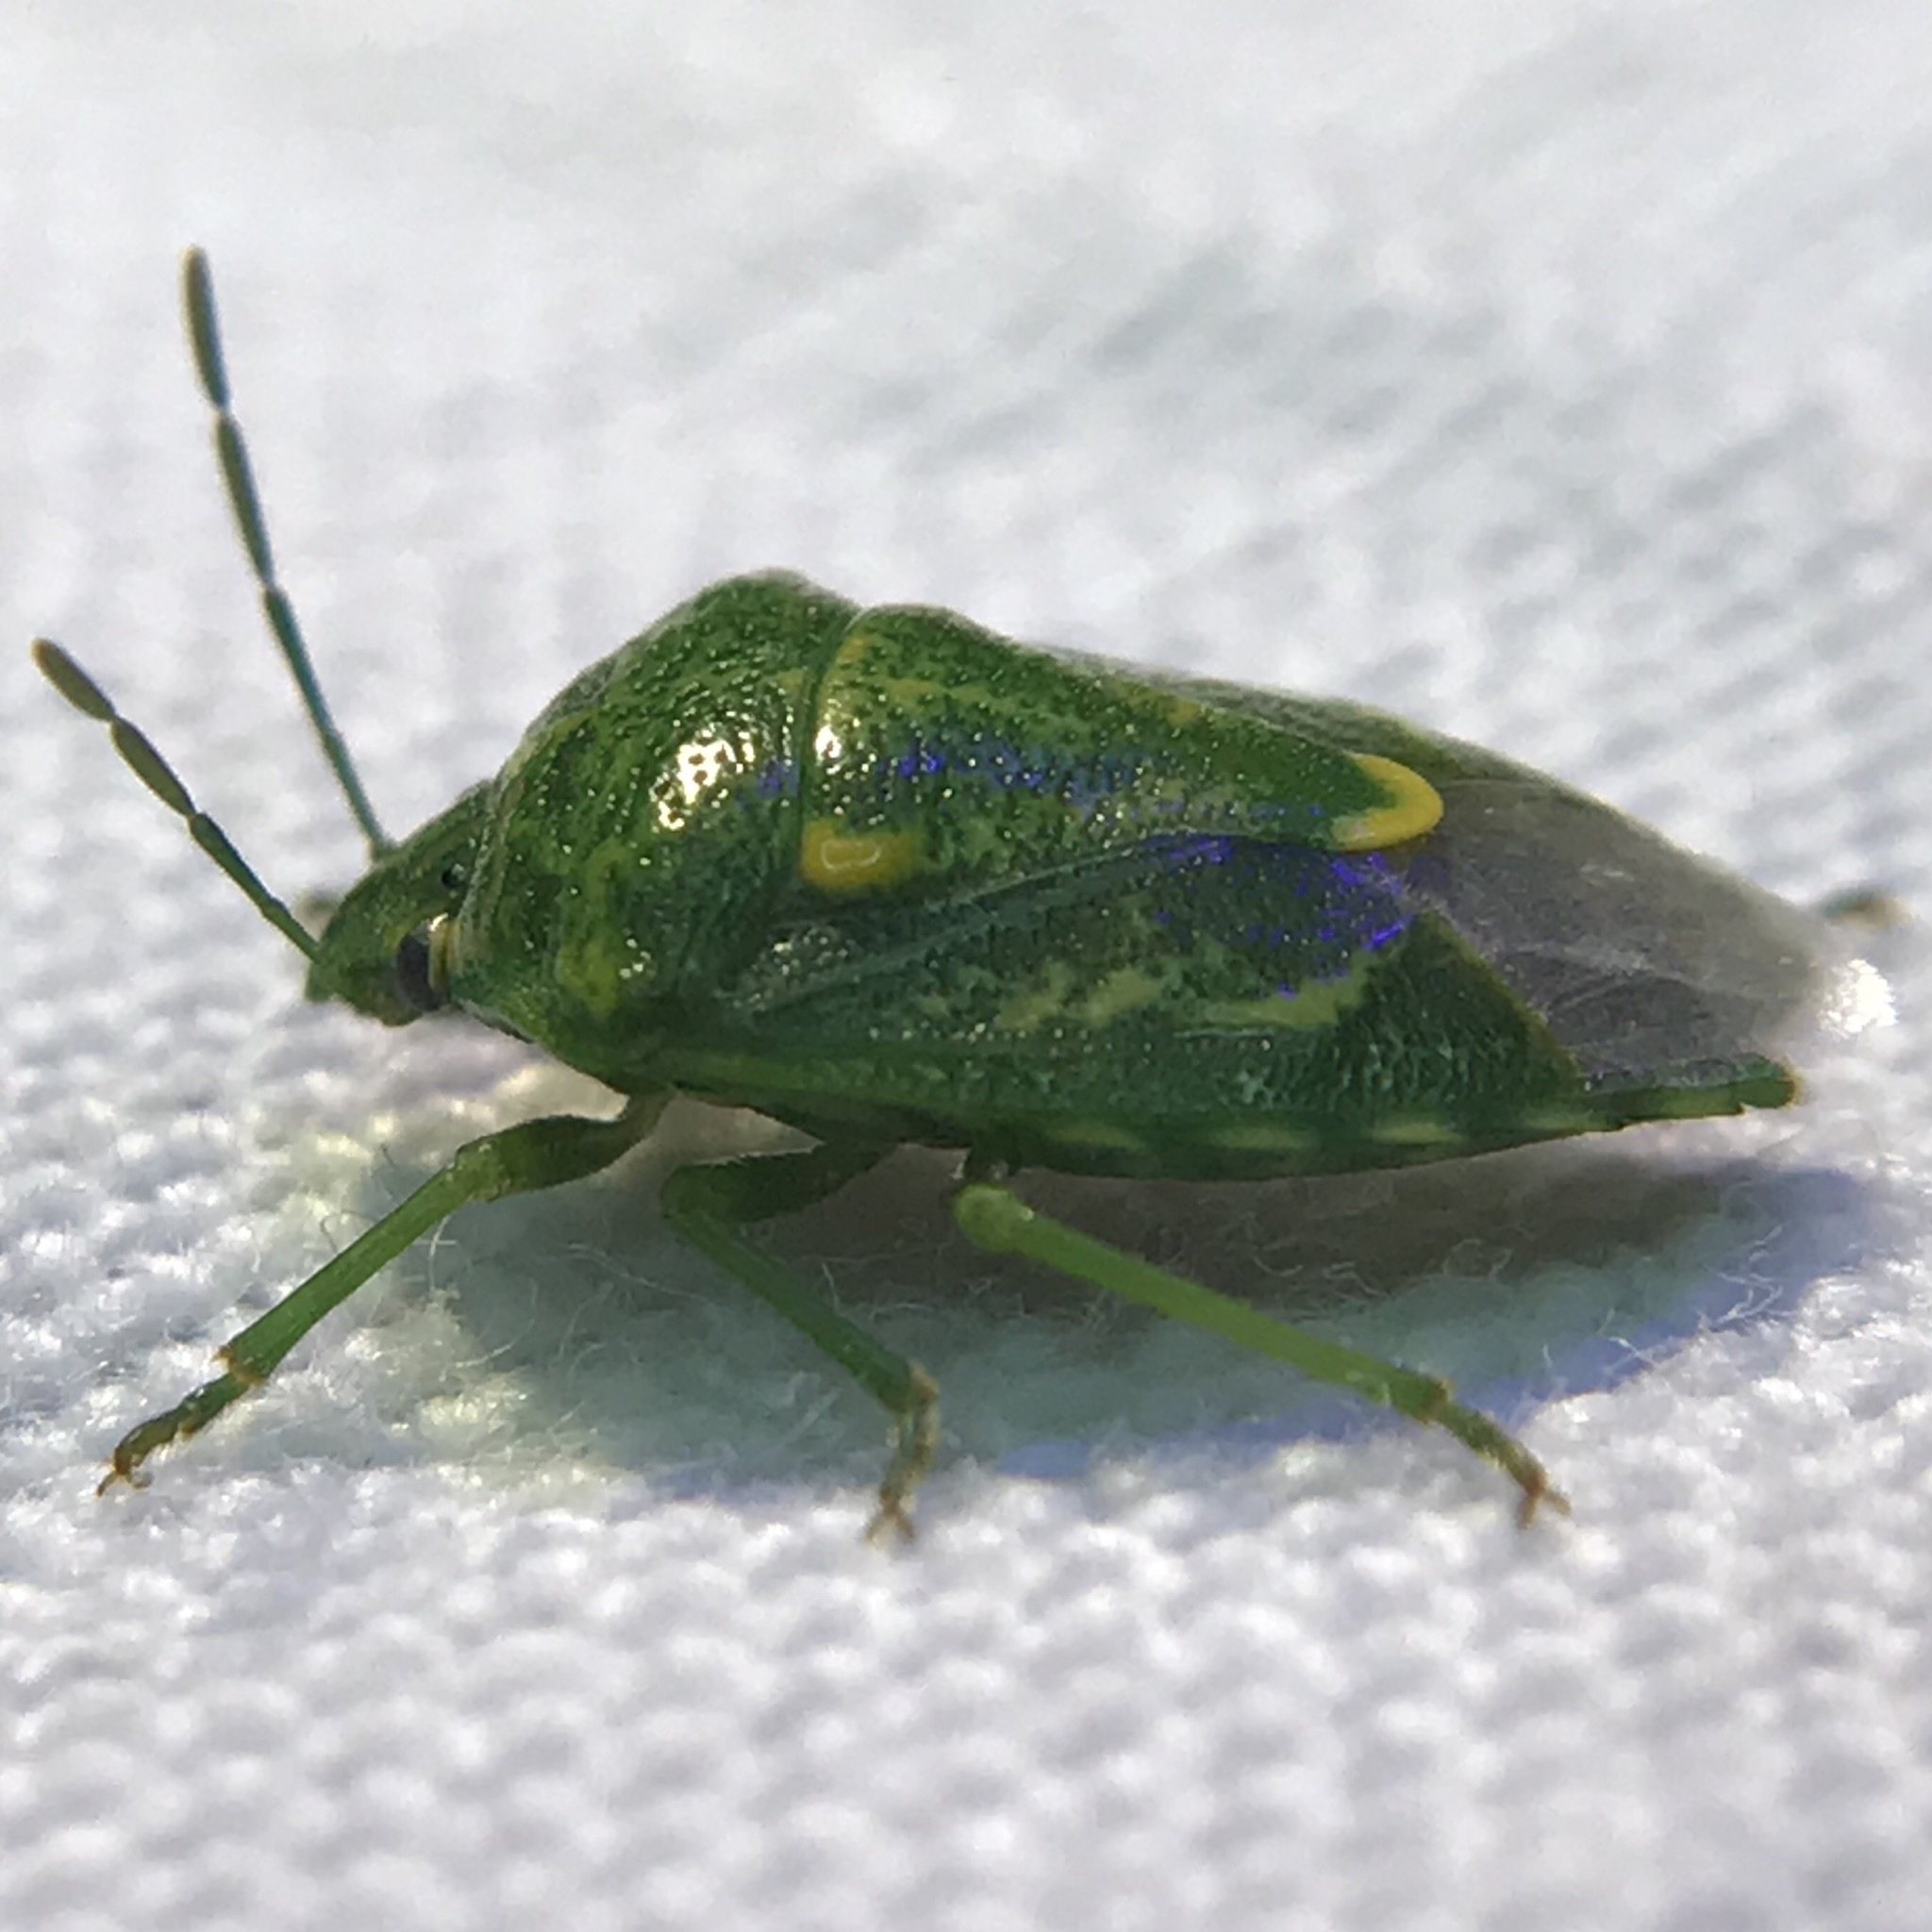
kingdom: Animalia
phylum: Arthropoda
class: Insecta
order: Hemiptera
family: Pentatomidae
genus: Banasa
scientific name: Banasa euchlora
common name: Cedar berry bug
